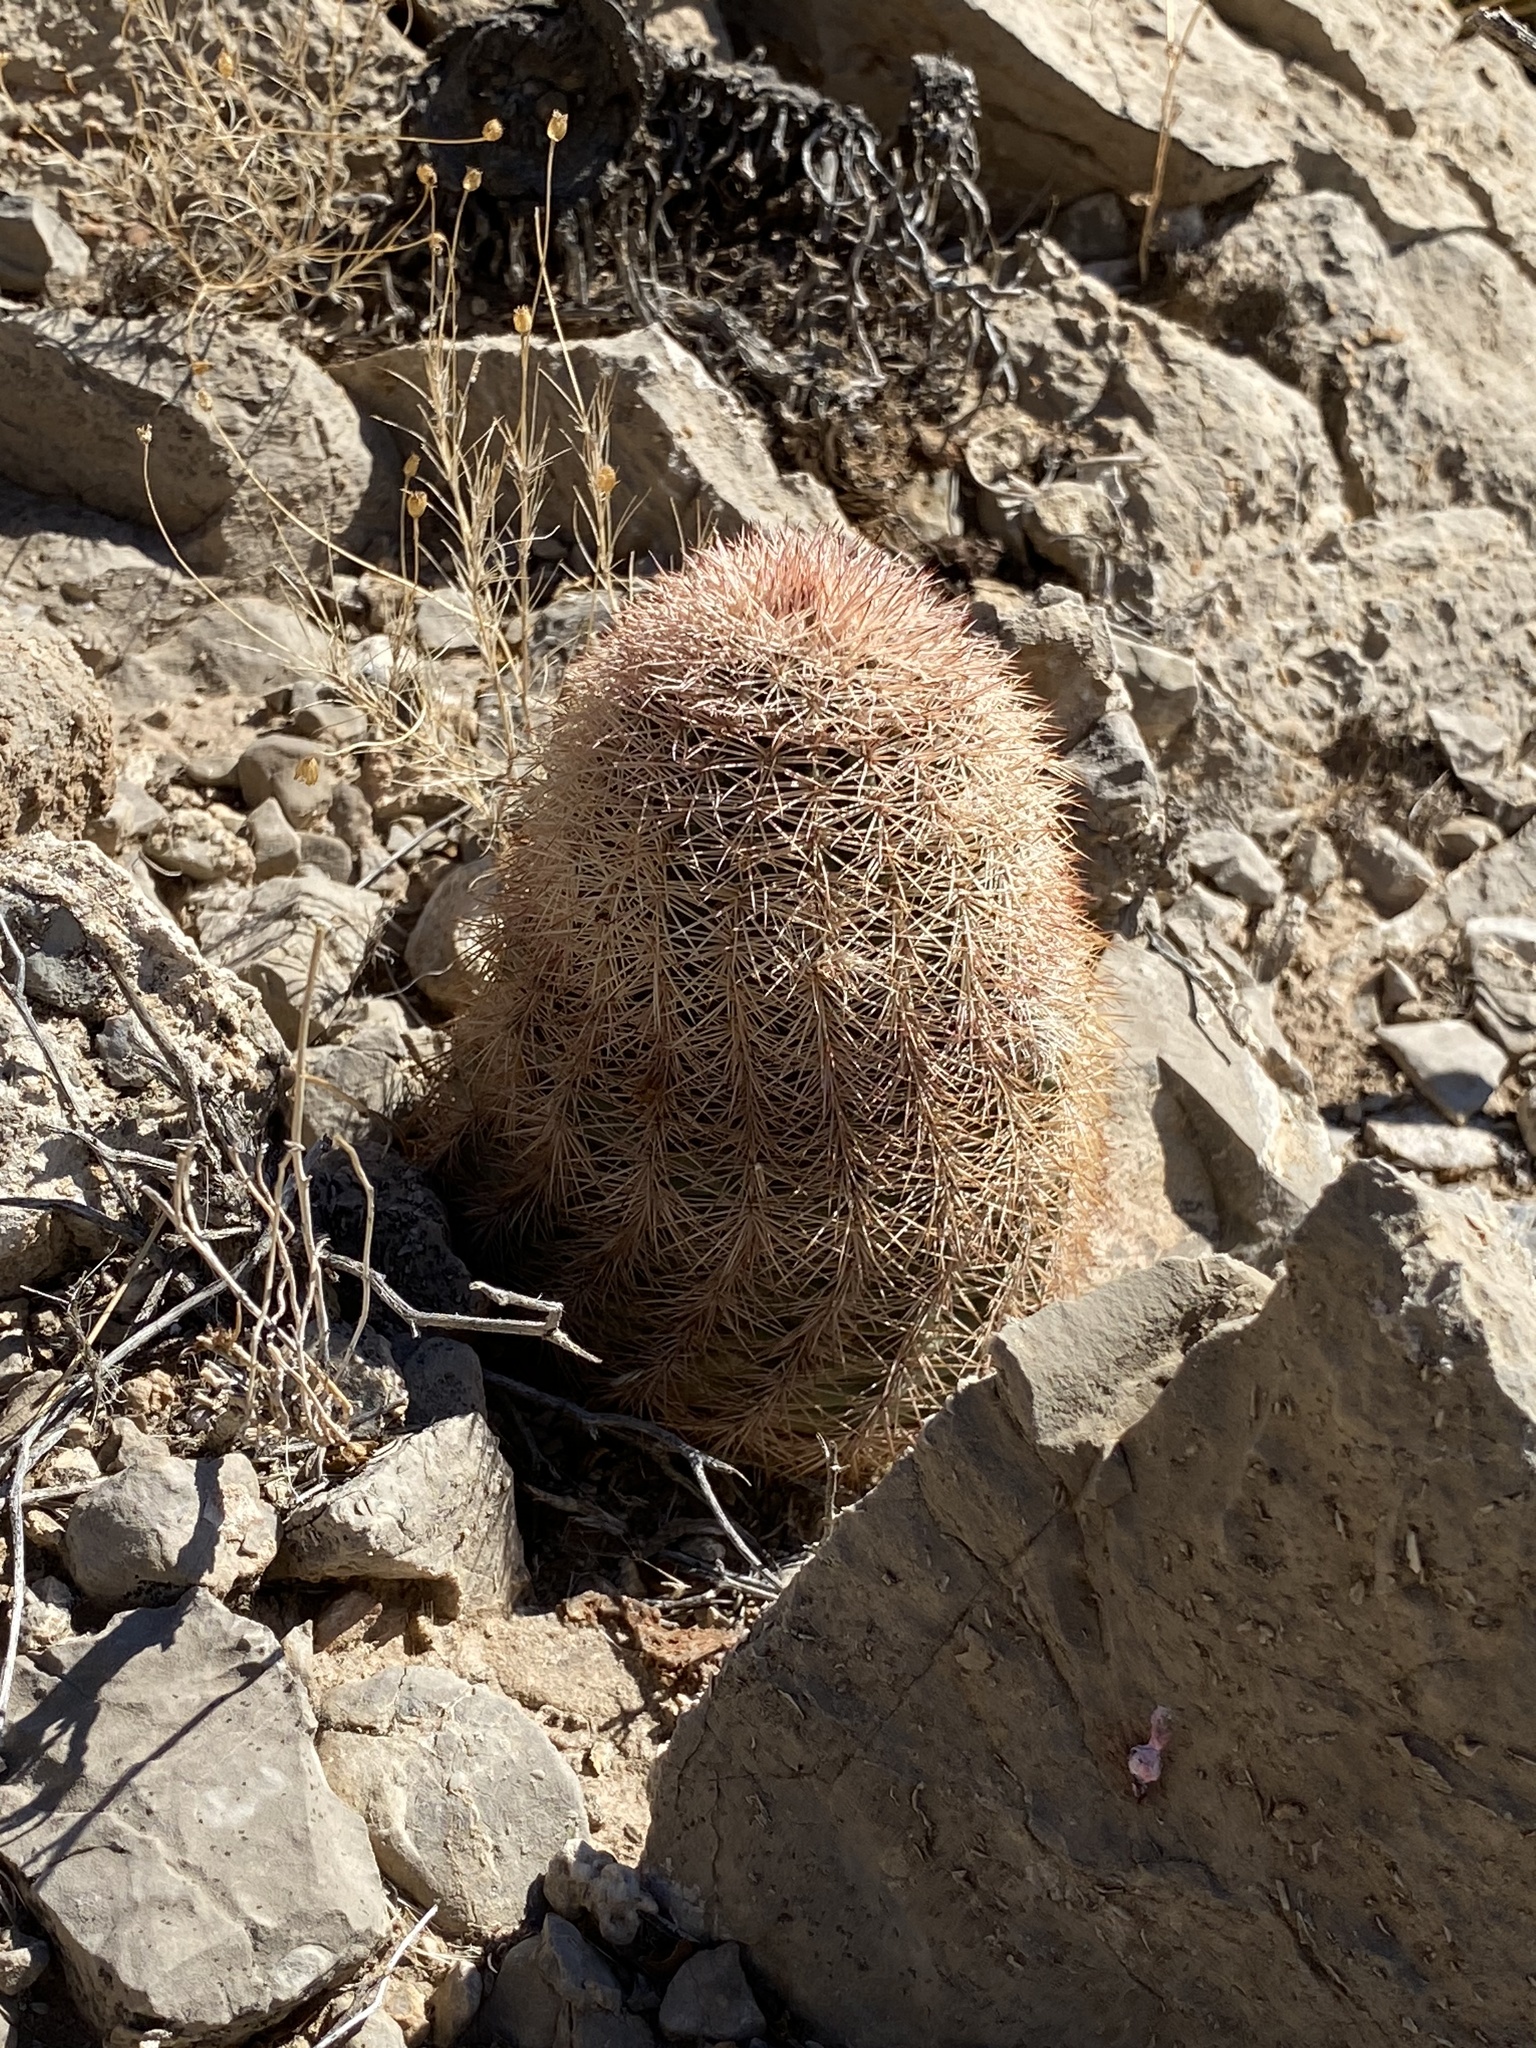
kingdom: Plantae
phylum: Tracheophyta
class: Magnoliopsida
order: Caryophyllales
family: Cactaceae
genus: Echinocereus
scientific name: Echinocereus dasyacanthus
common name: Spiny hedgehog cactus
